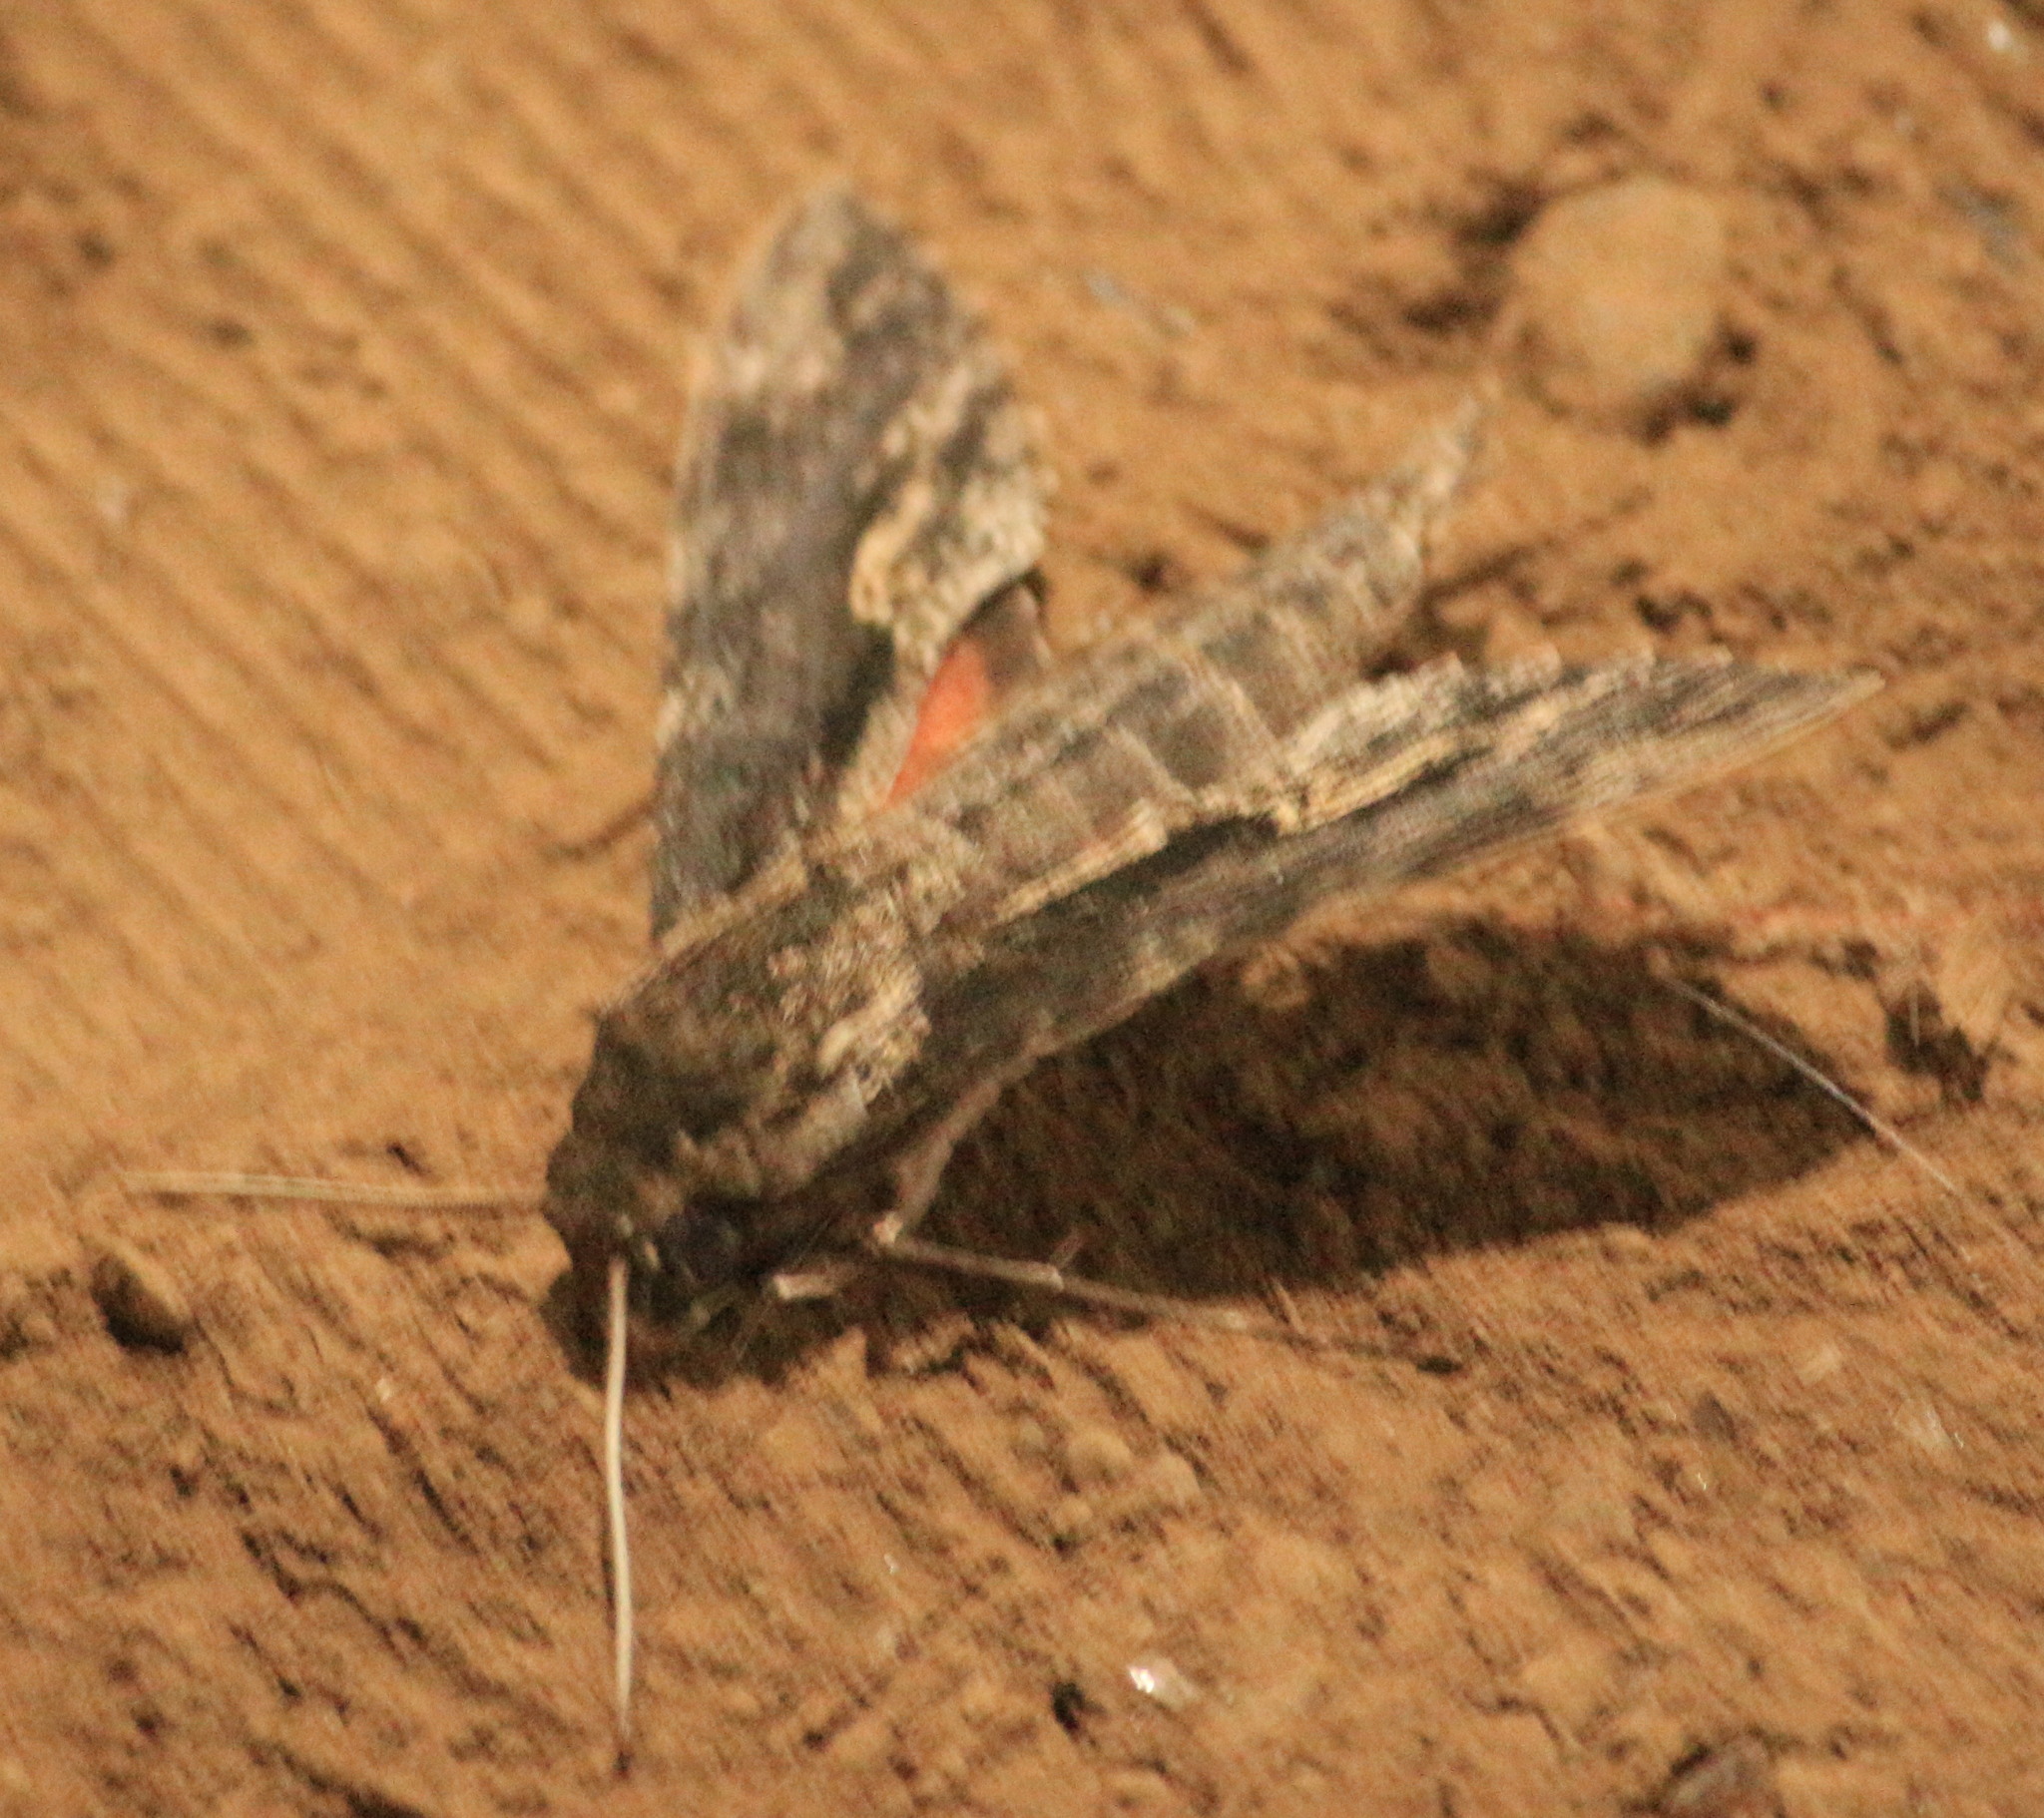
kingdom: Animalia
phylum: Arthropoda
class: Insecta
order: Lepidoptera
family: Sphingidae
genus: Erinnyis
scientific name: Erinnyis oenotrus
